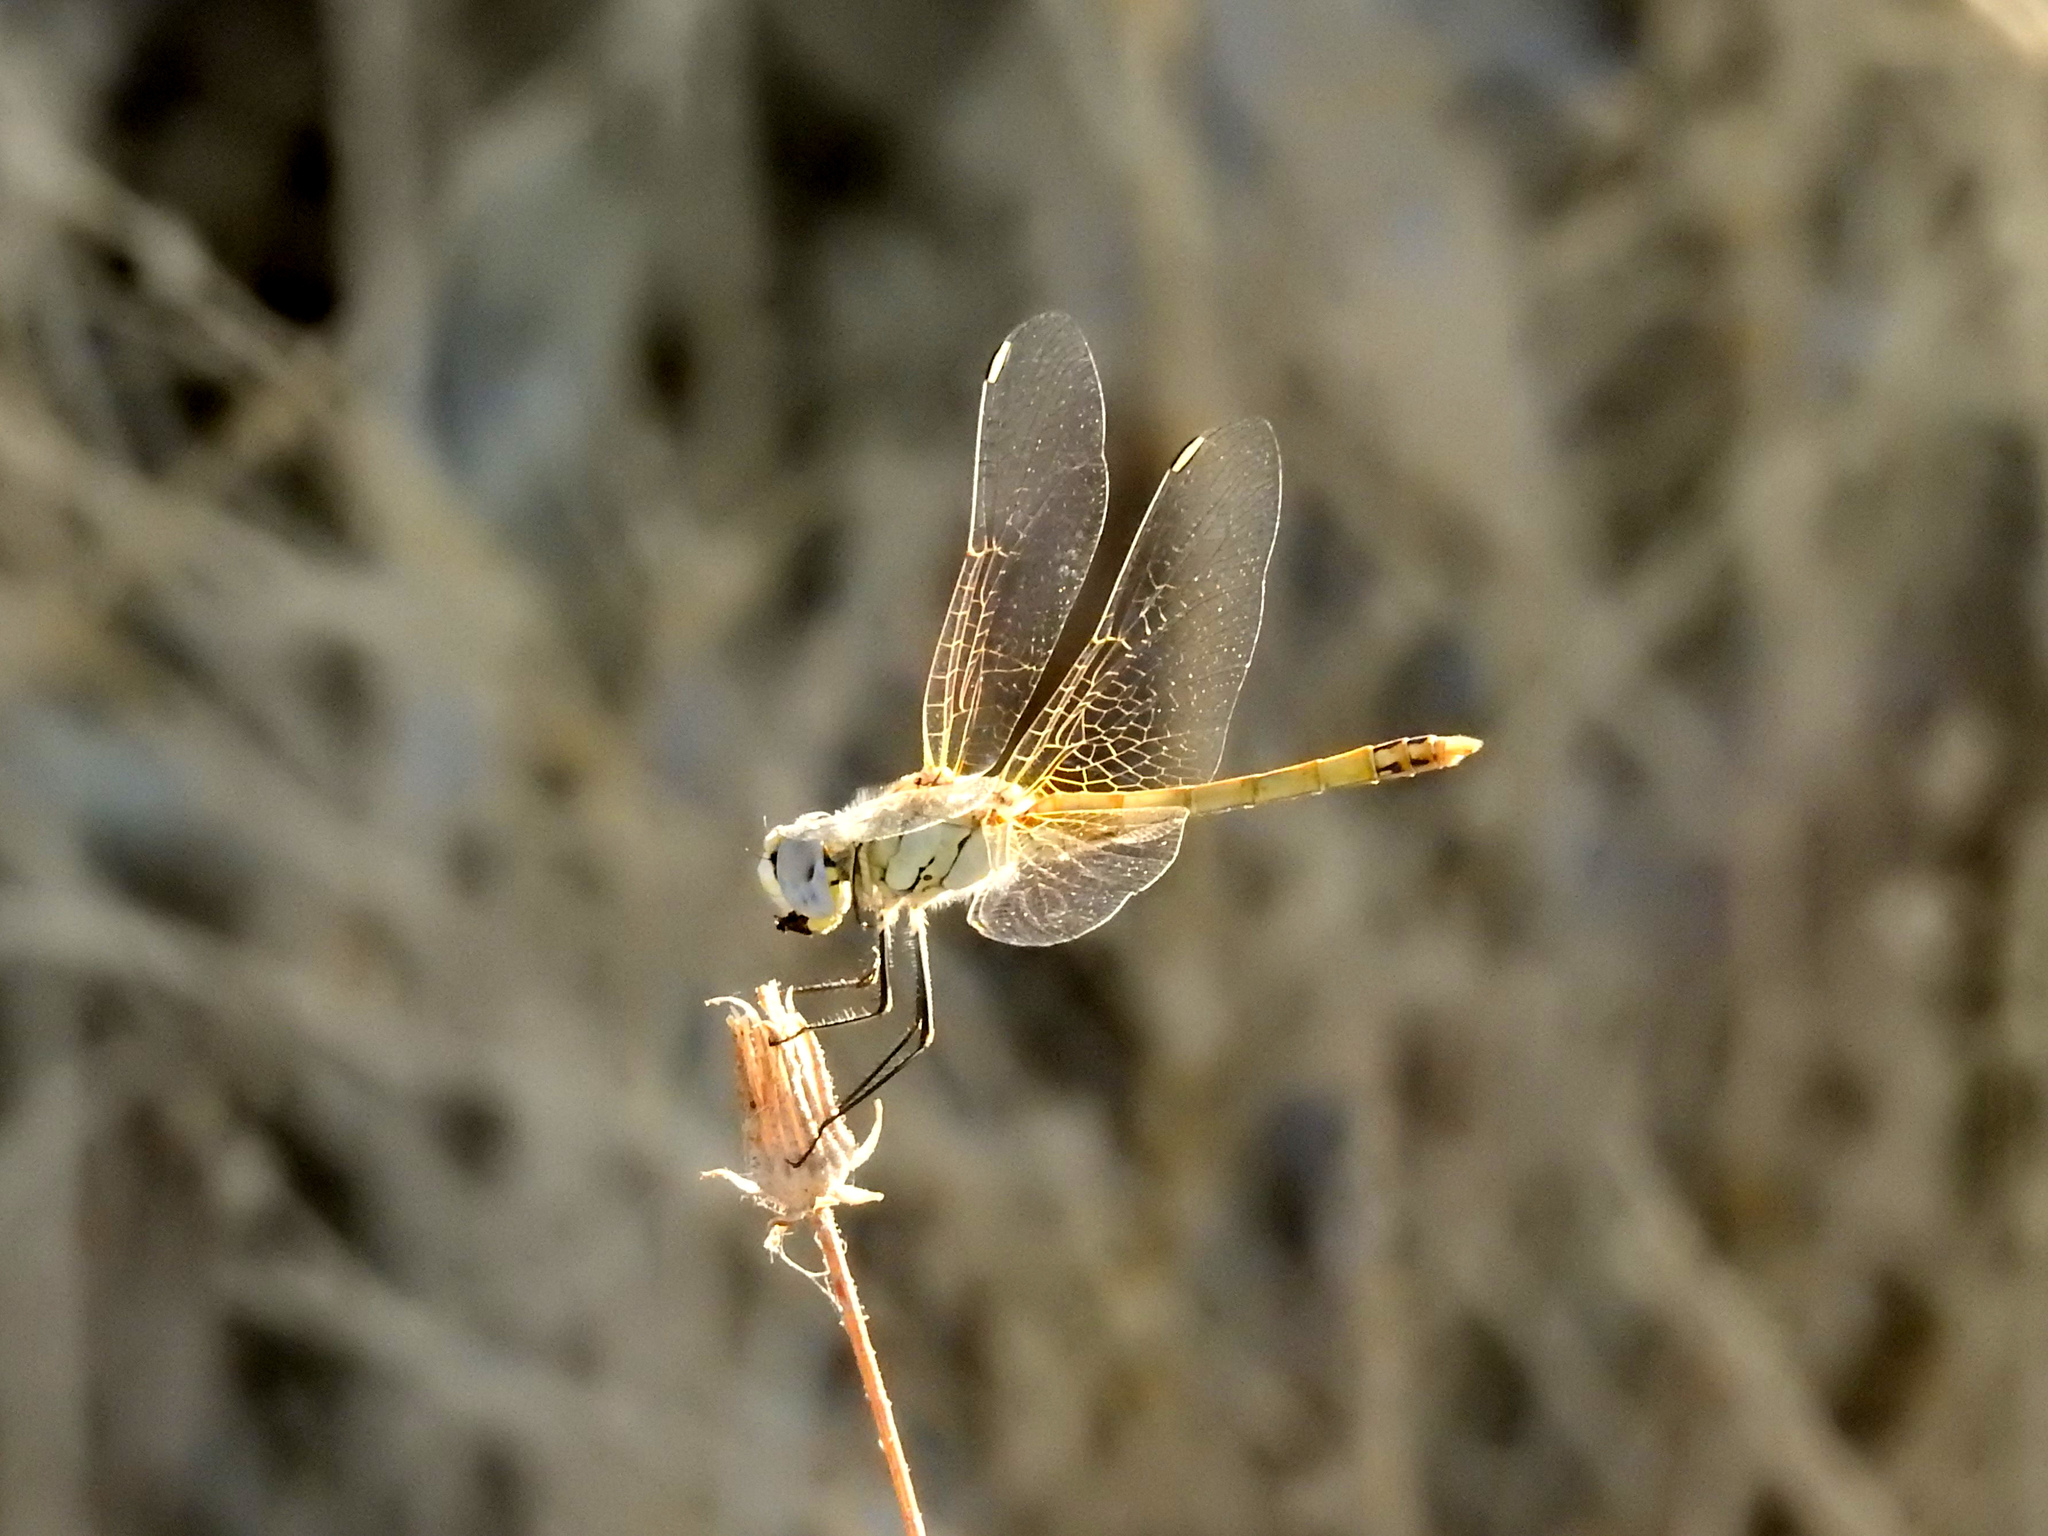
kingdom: Animalia
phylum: Arthropoda
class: Insecta
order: Odonata
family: Libellulidae
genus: Sympetrum
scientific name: Sympetrum fonscolombii
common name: Red-veined darter
